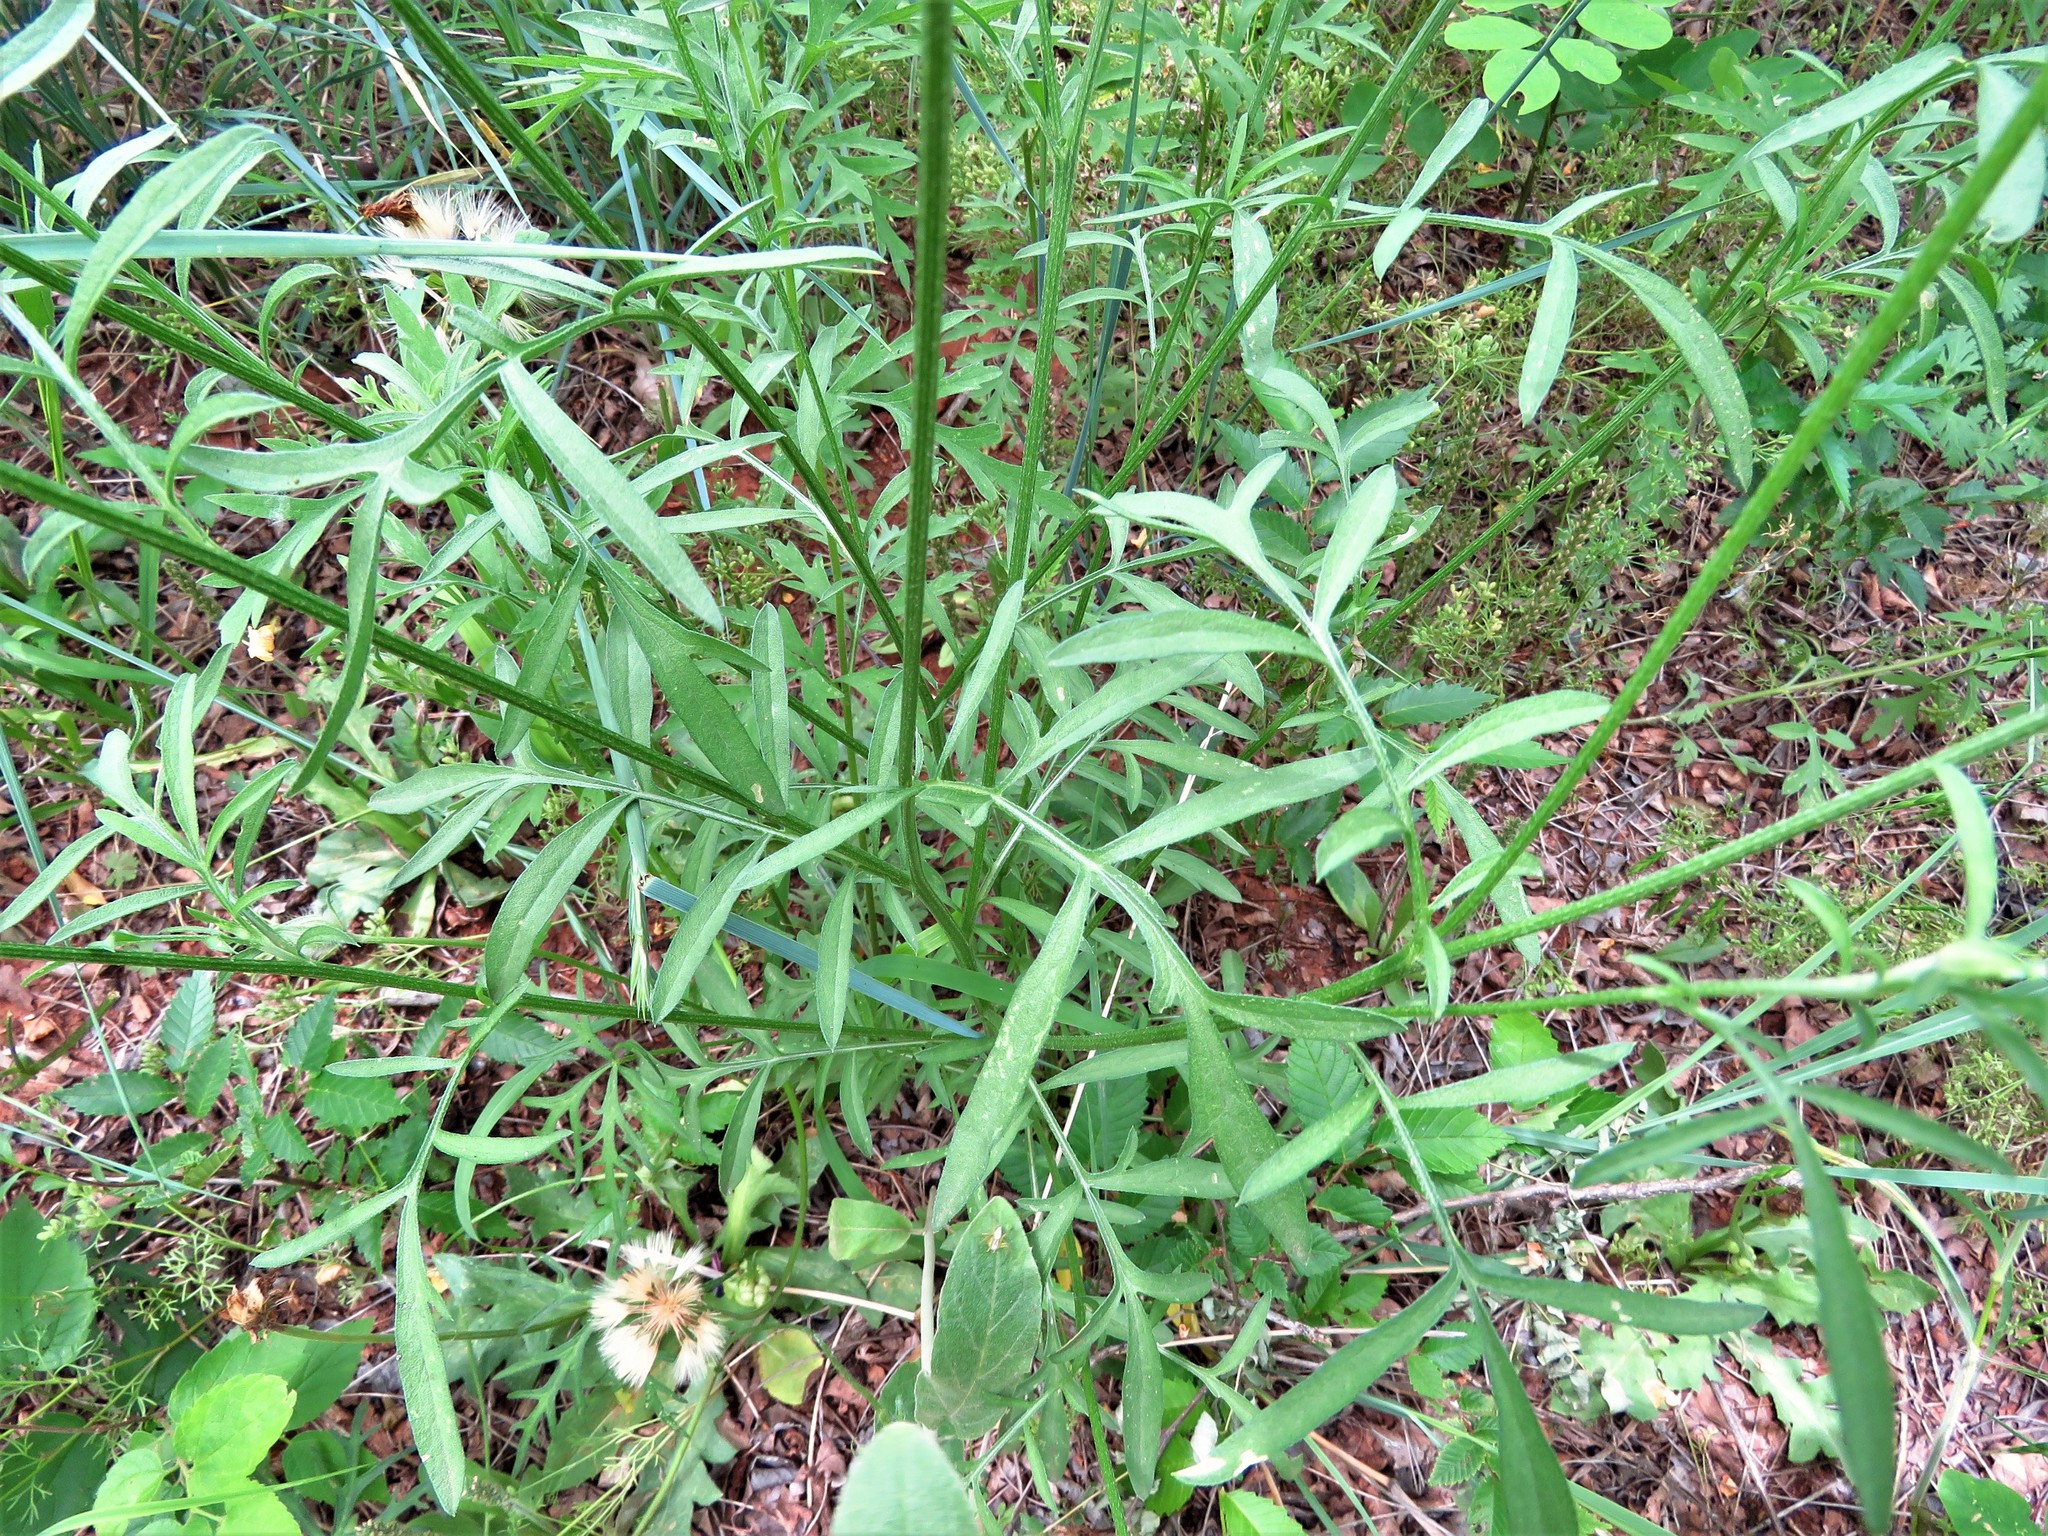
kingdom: Plantae
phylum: Tracheophyta
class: Magnoliopsida
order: Asterales
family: Asteraceae
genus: Ratibida
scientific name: Ratibida columnifera
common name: Prairie coneflower
